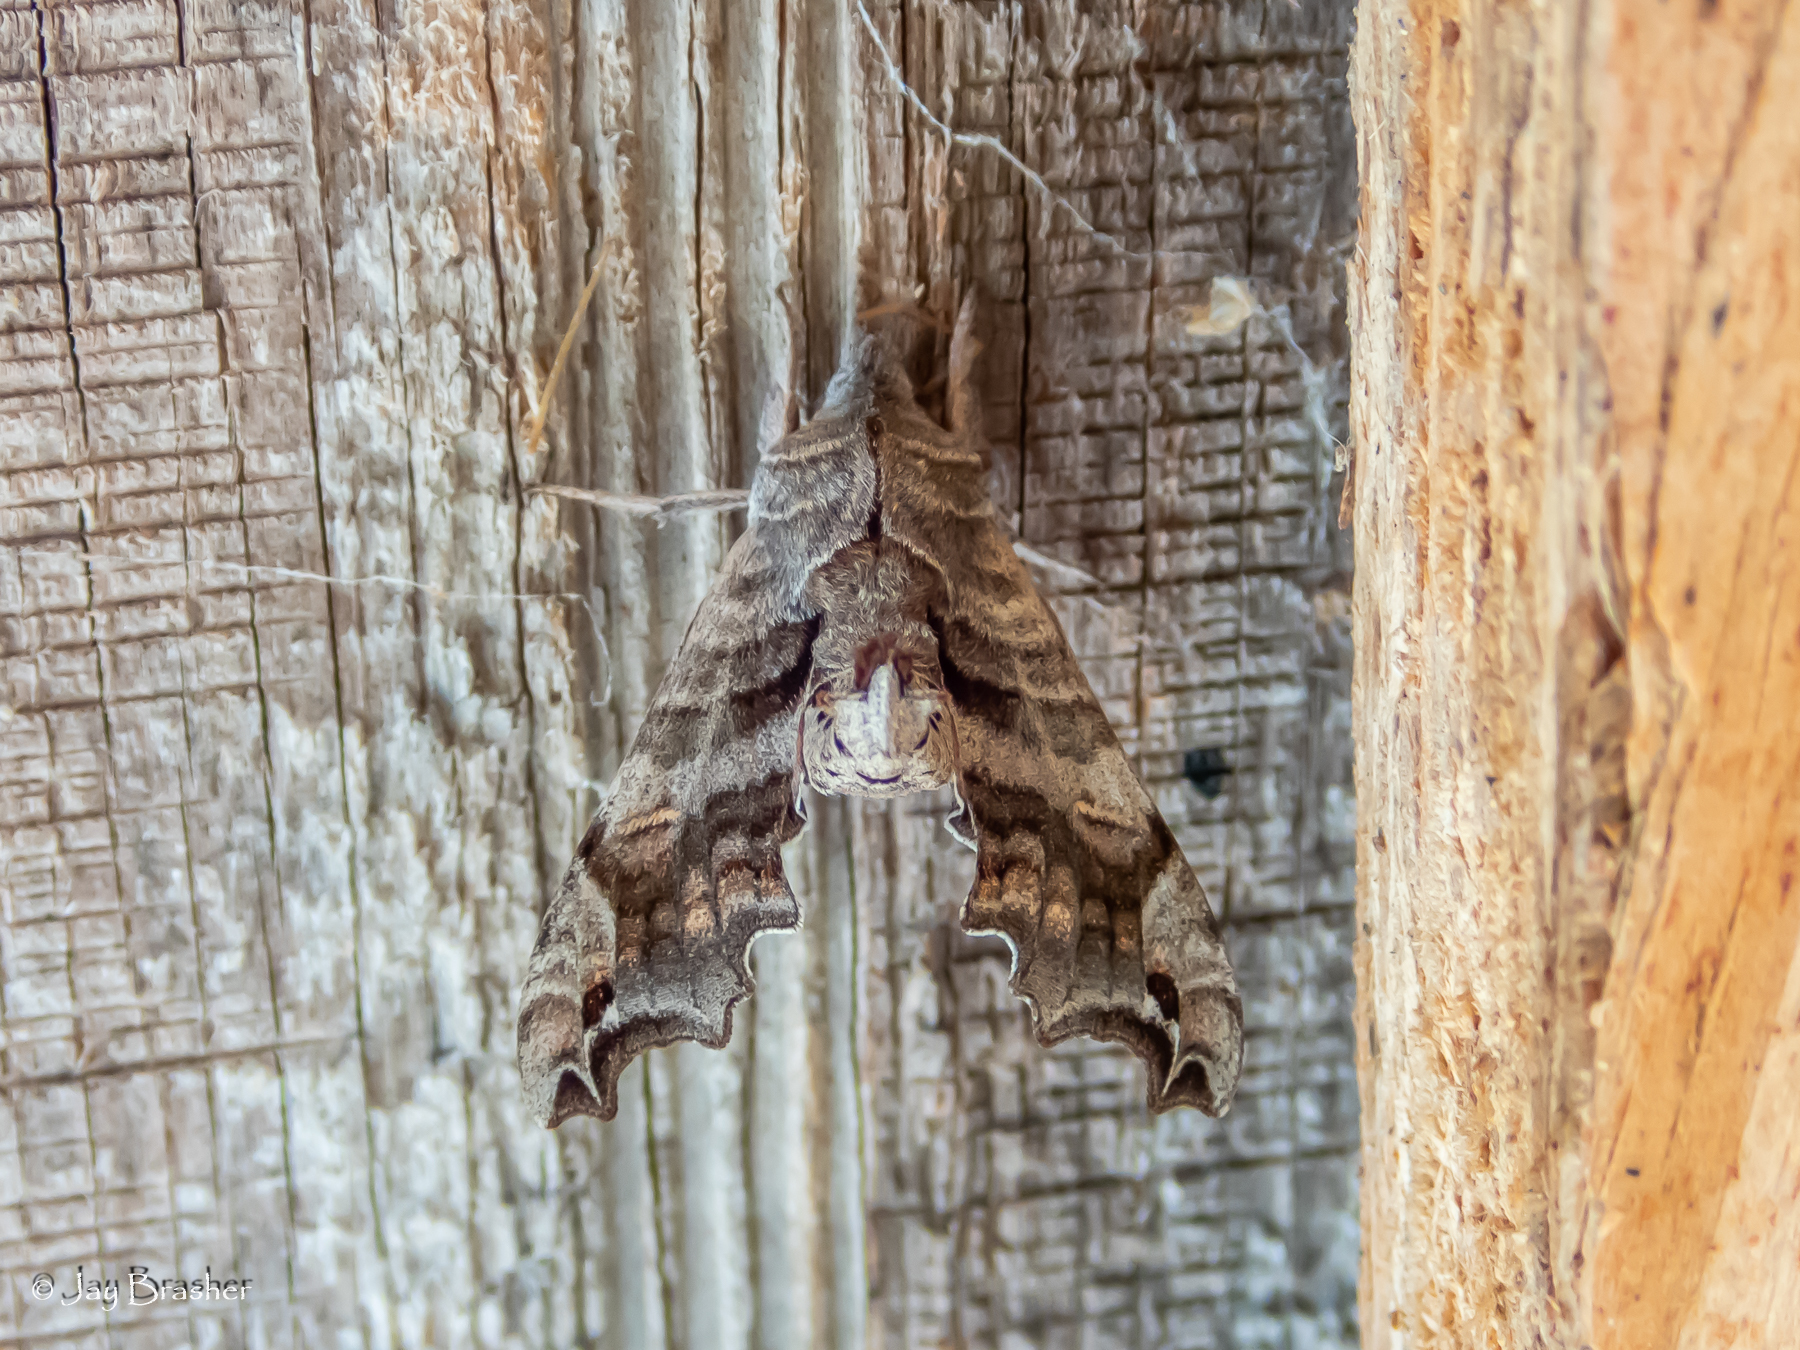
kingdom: Animalia
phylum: Arthropoda
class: Insecta
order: Lepidoptera
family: Sphingidae
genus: Deidamia
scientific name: Deidamia inscriptum
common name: Lettered sphinx
